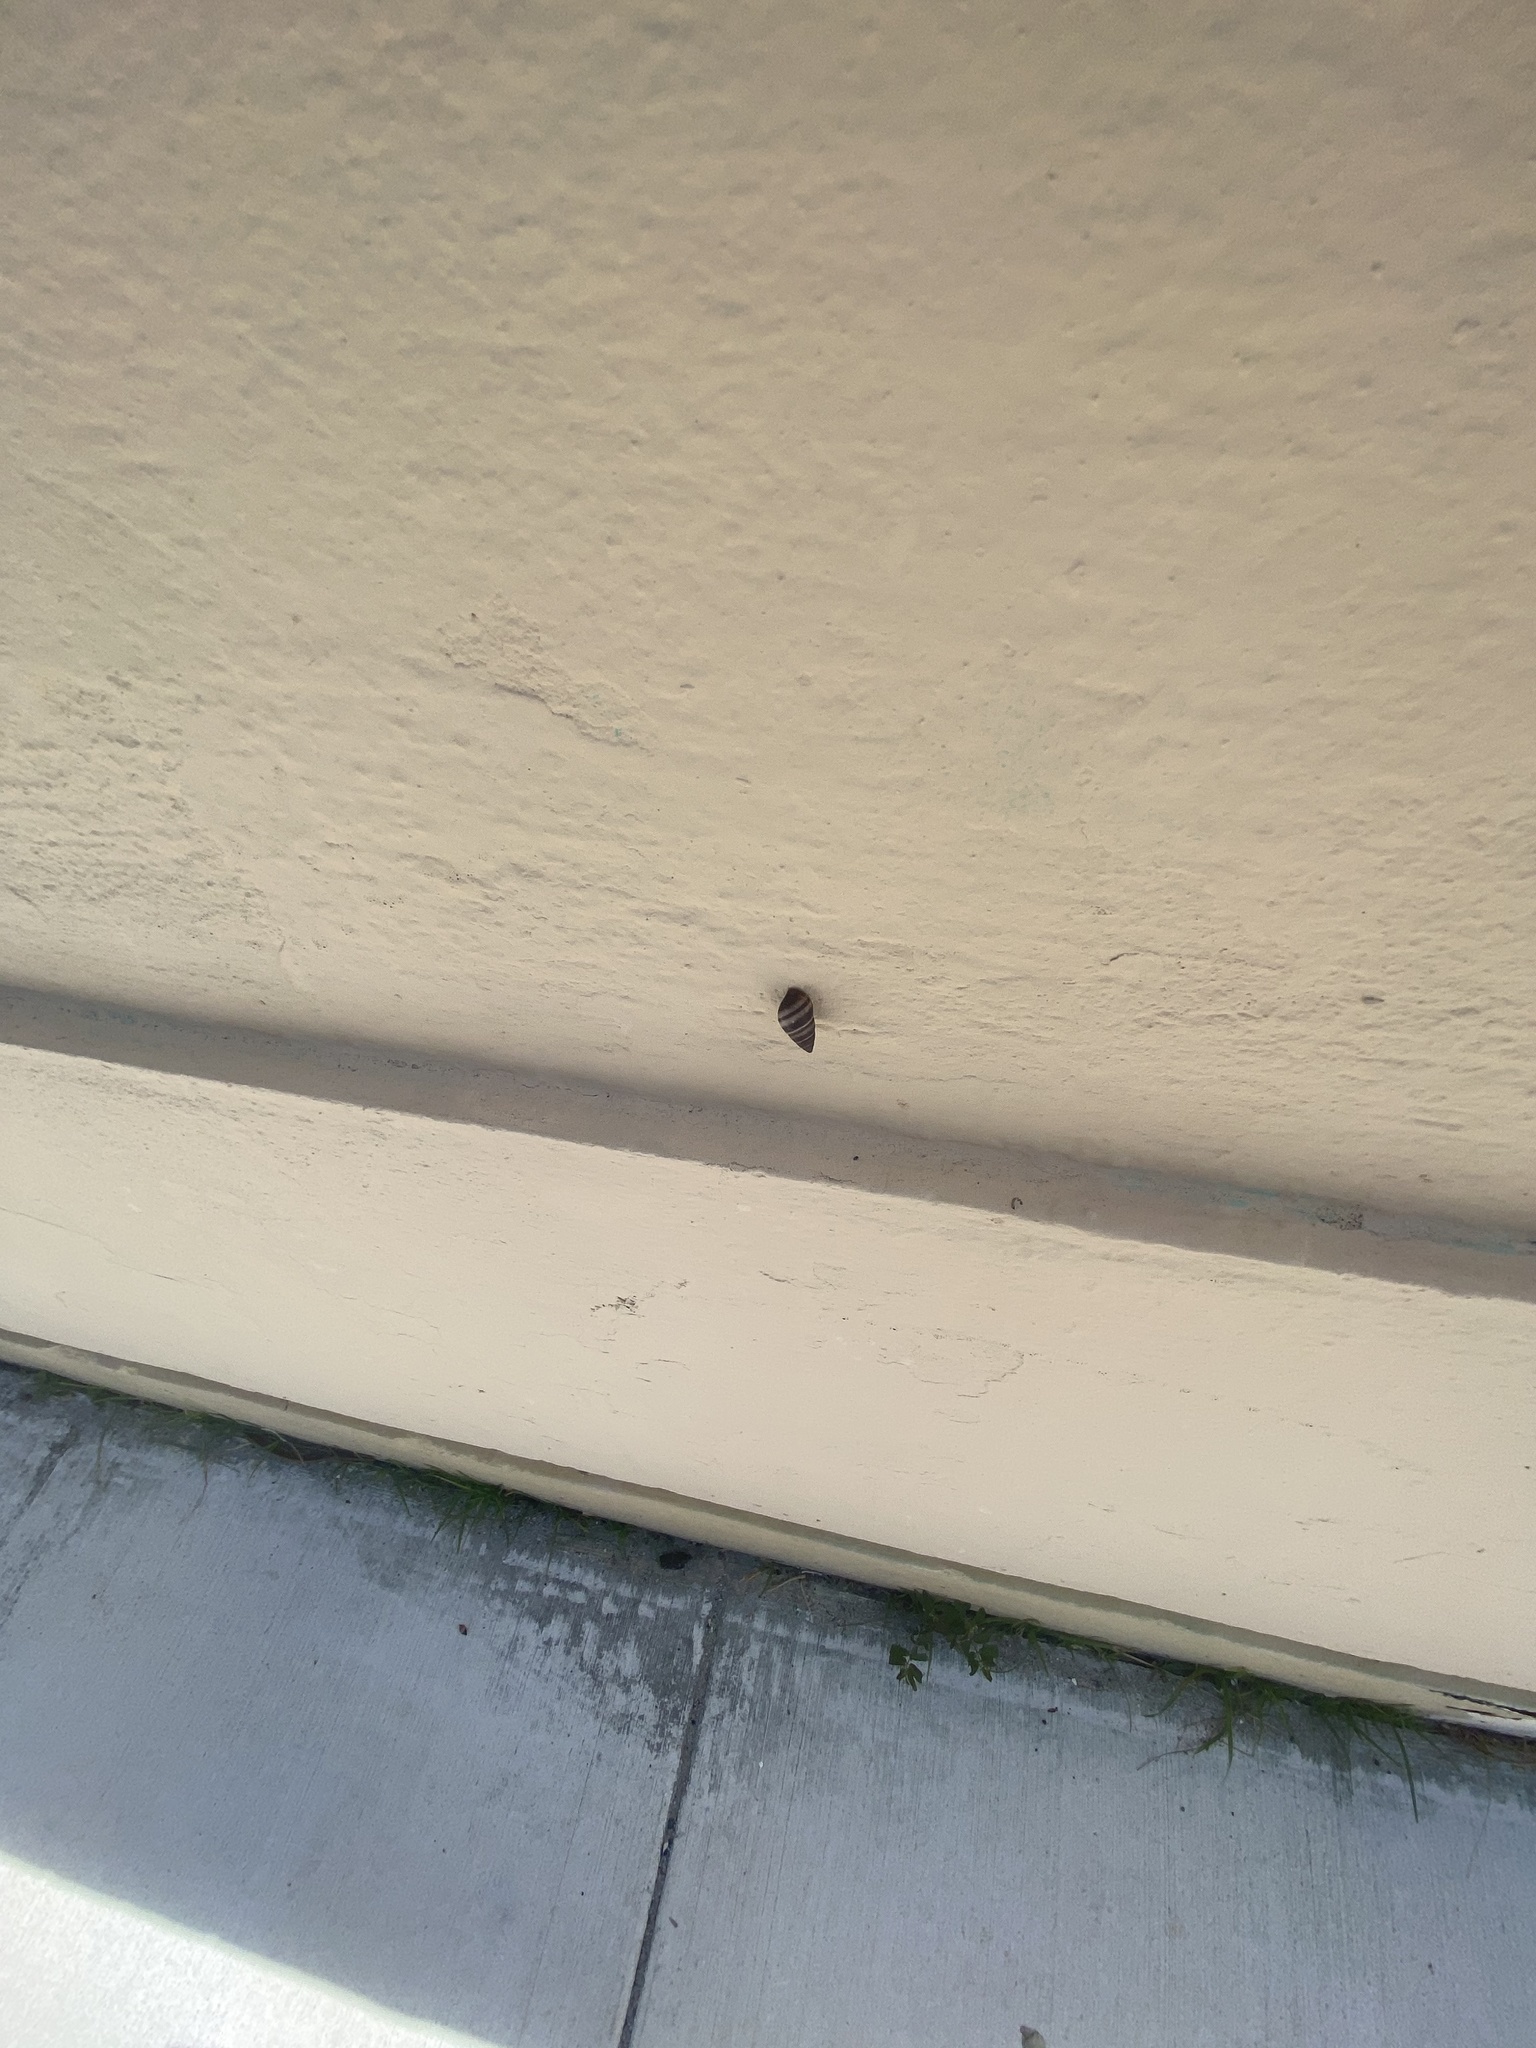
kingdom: Animalia
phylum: Mollusca
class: Gastropoda
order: Stylommatophora
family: Bulimulidae
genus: Bulimulus
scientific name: Bulimulus guadalupensis
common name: West indian bulimulus
